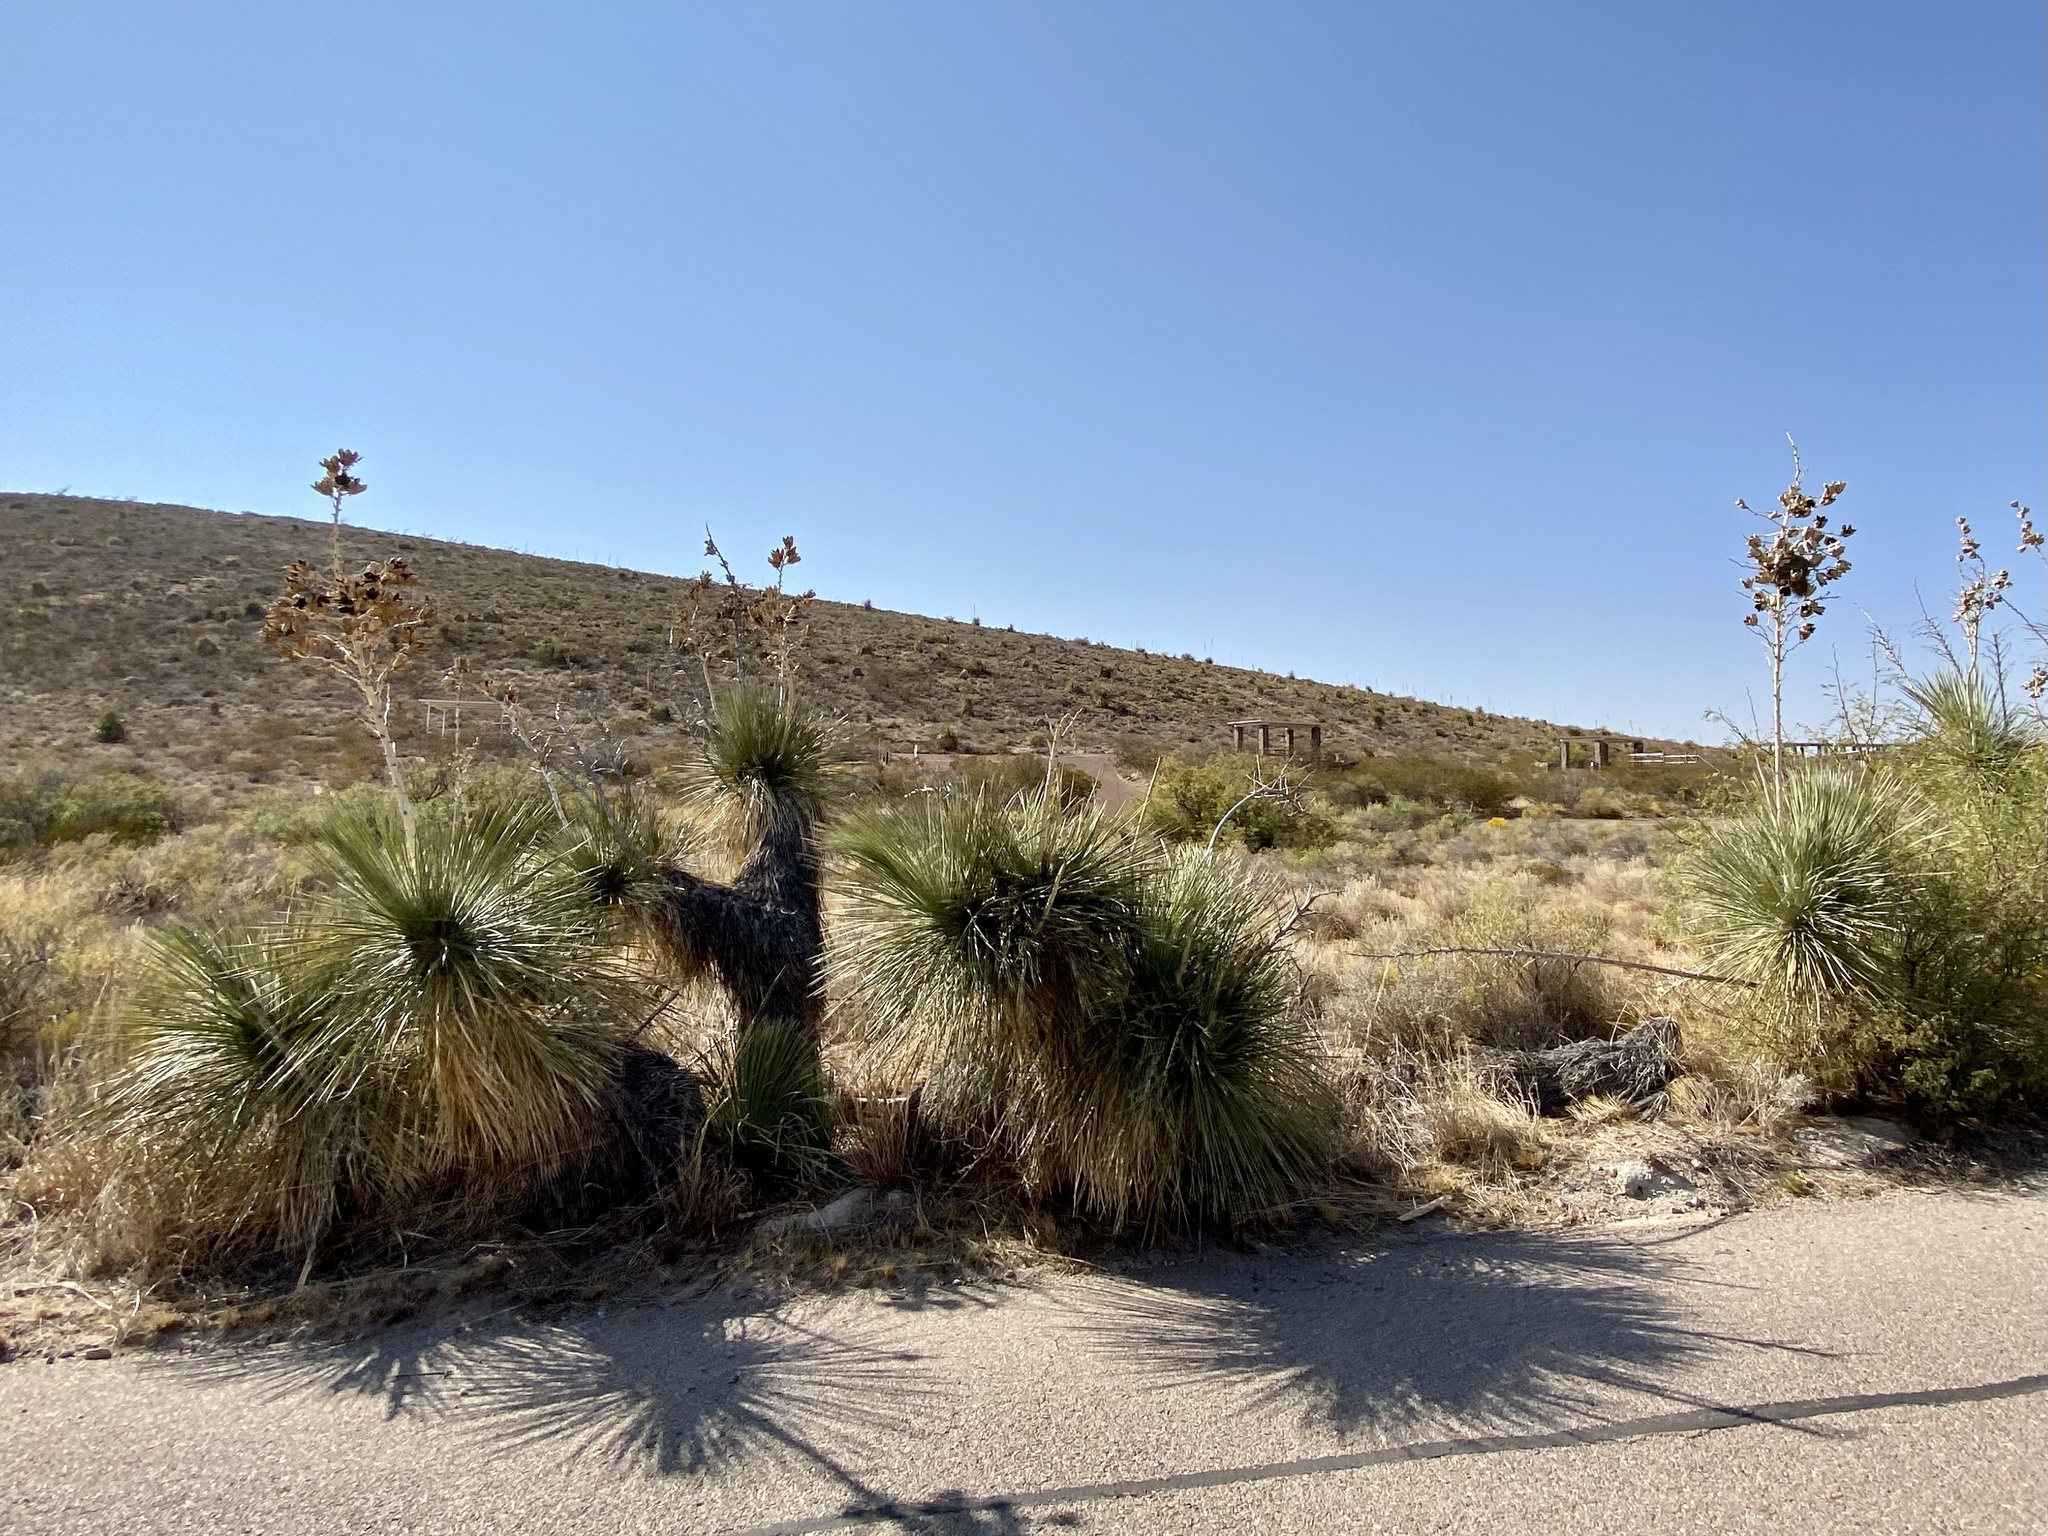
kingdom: Plantae
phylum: Tracheophyta
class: Liliopsida
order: Asparagales
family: Asparagaceae
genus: Yucca
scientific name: Yucca elata
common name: Palmella
